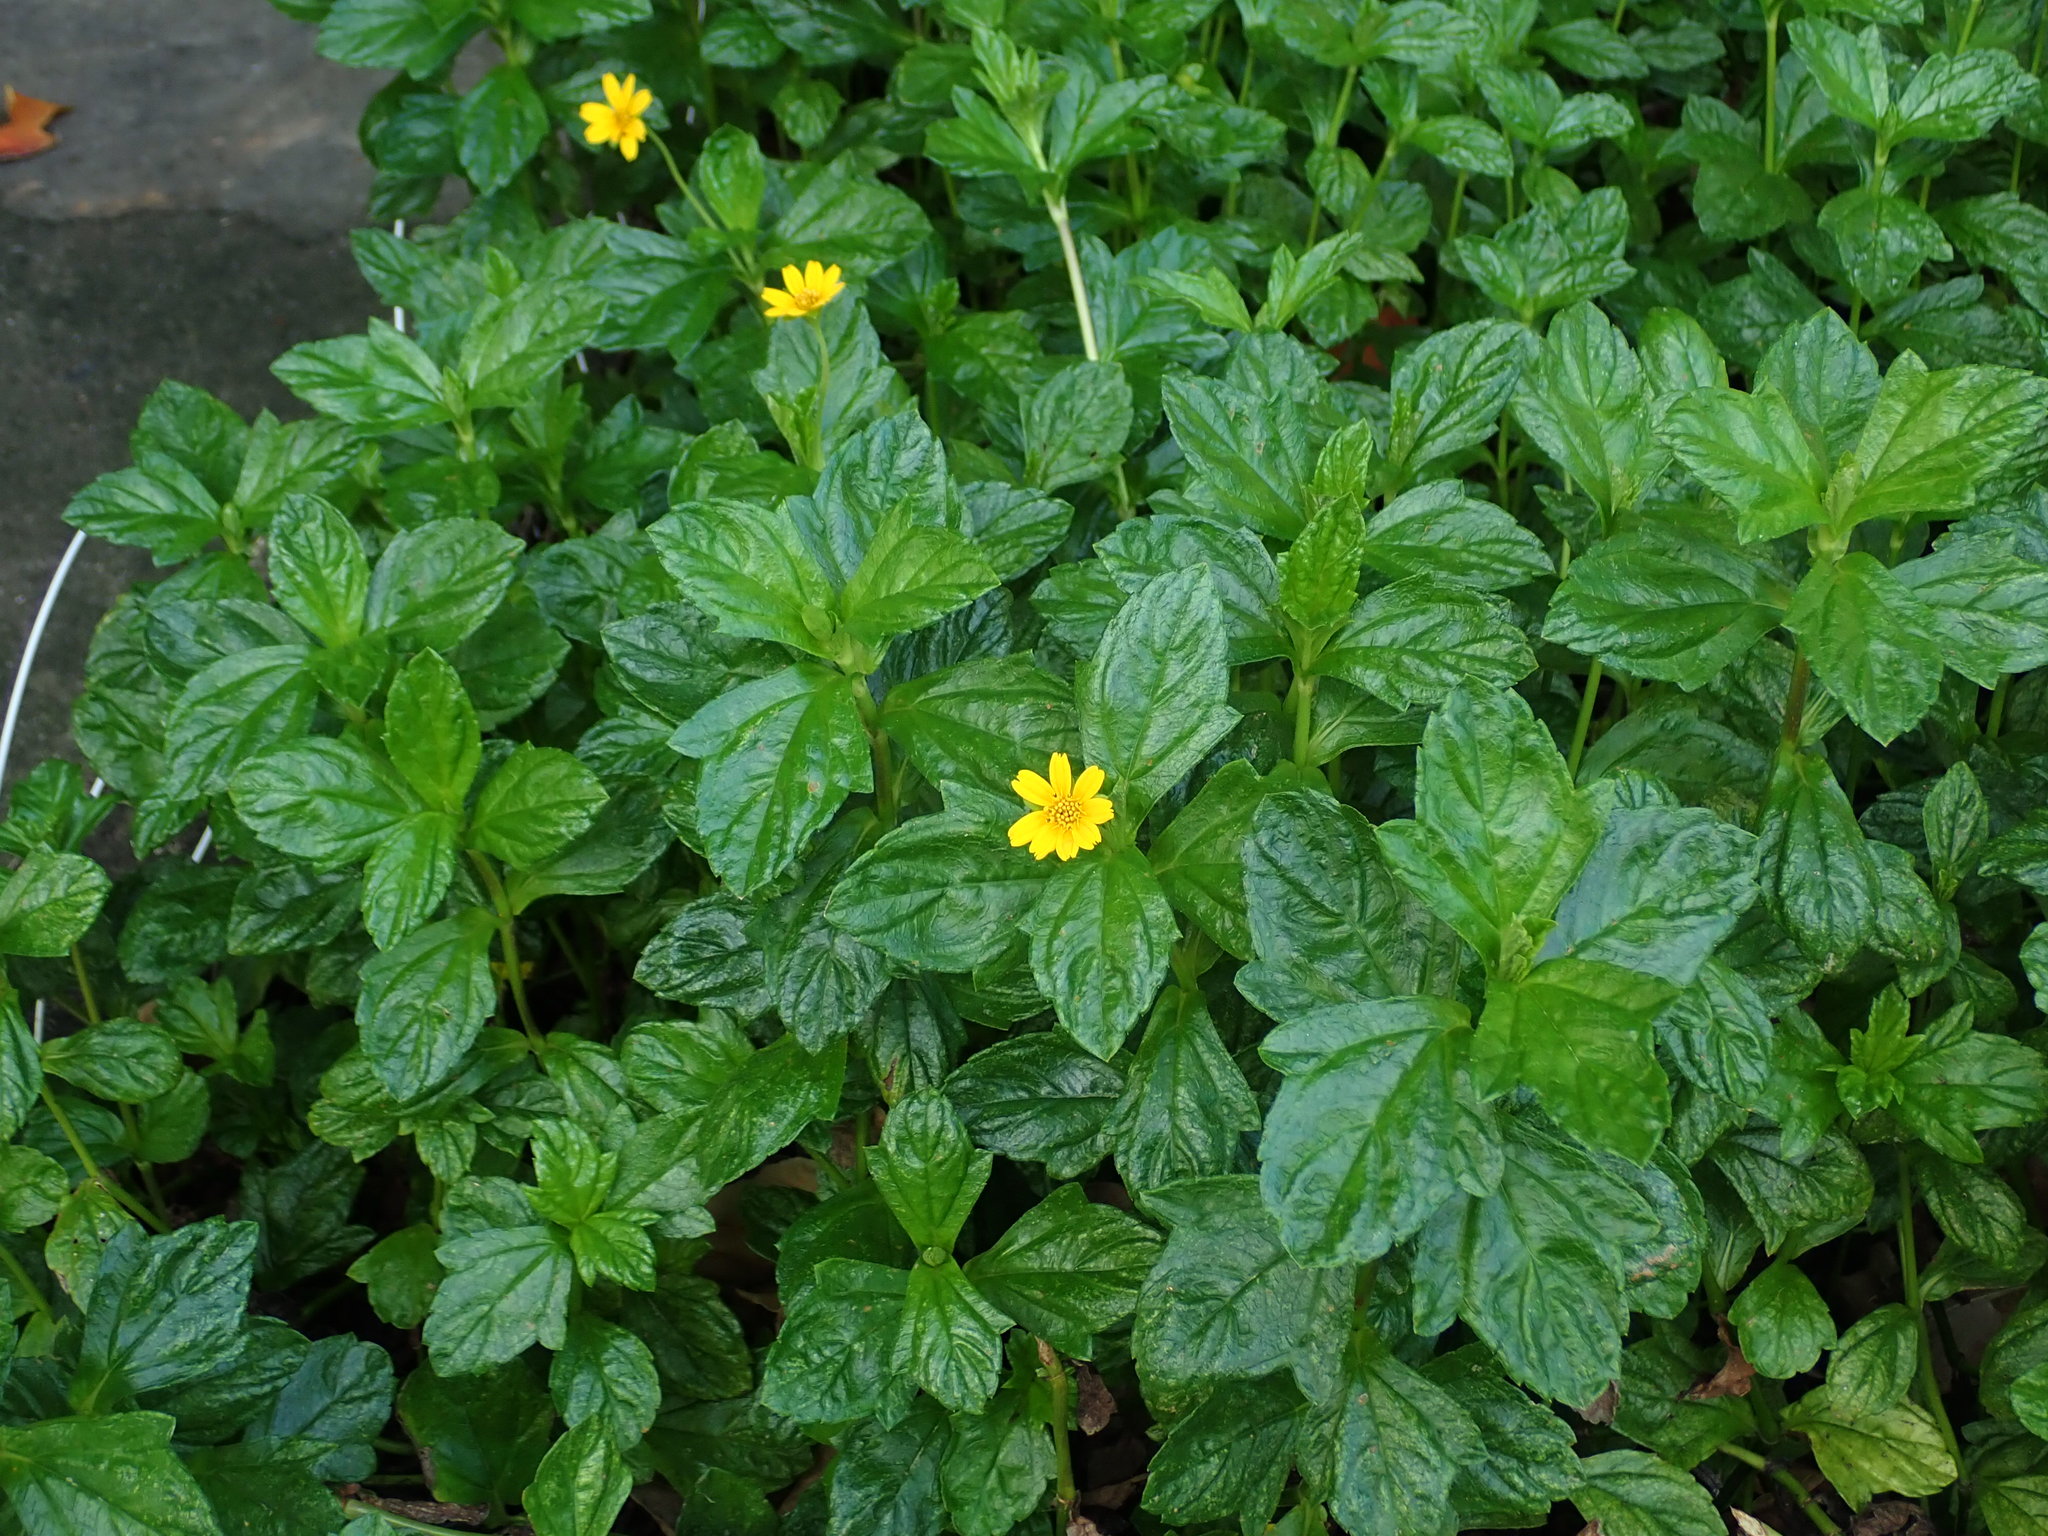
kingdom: Plantae
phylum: Tracheophyta
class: Magnoliopsida
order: Asterales
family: Asteraceae
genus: Sphagneticola
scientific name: Sphagneticola trilobata
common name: Bay biscayne creeping-oxeye
